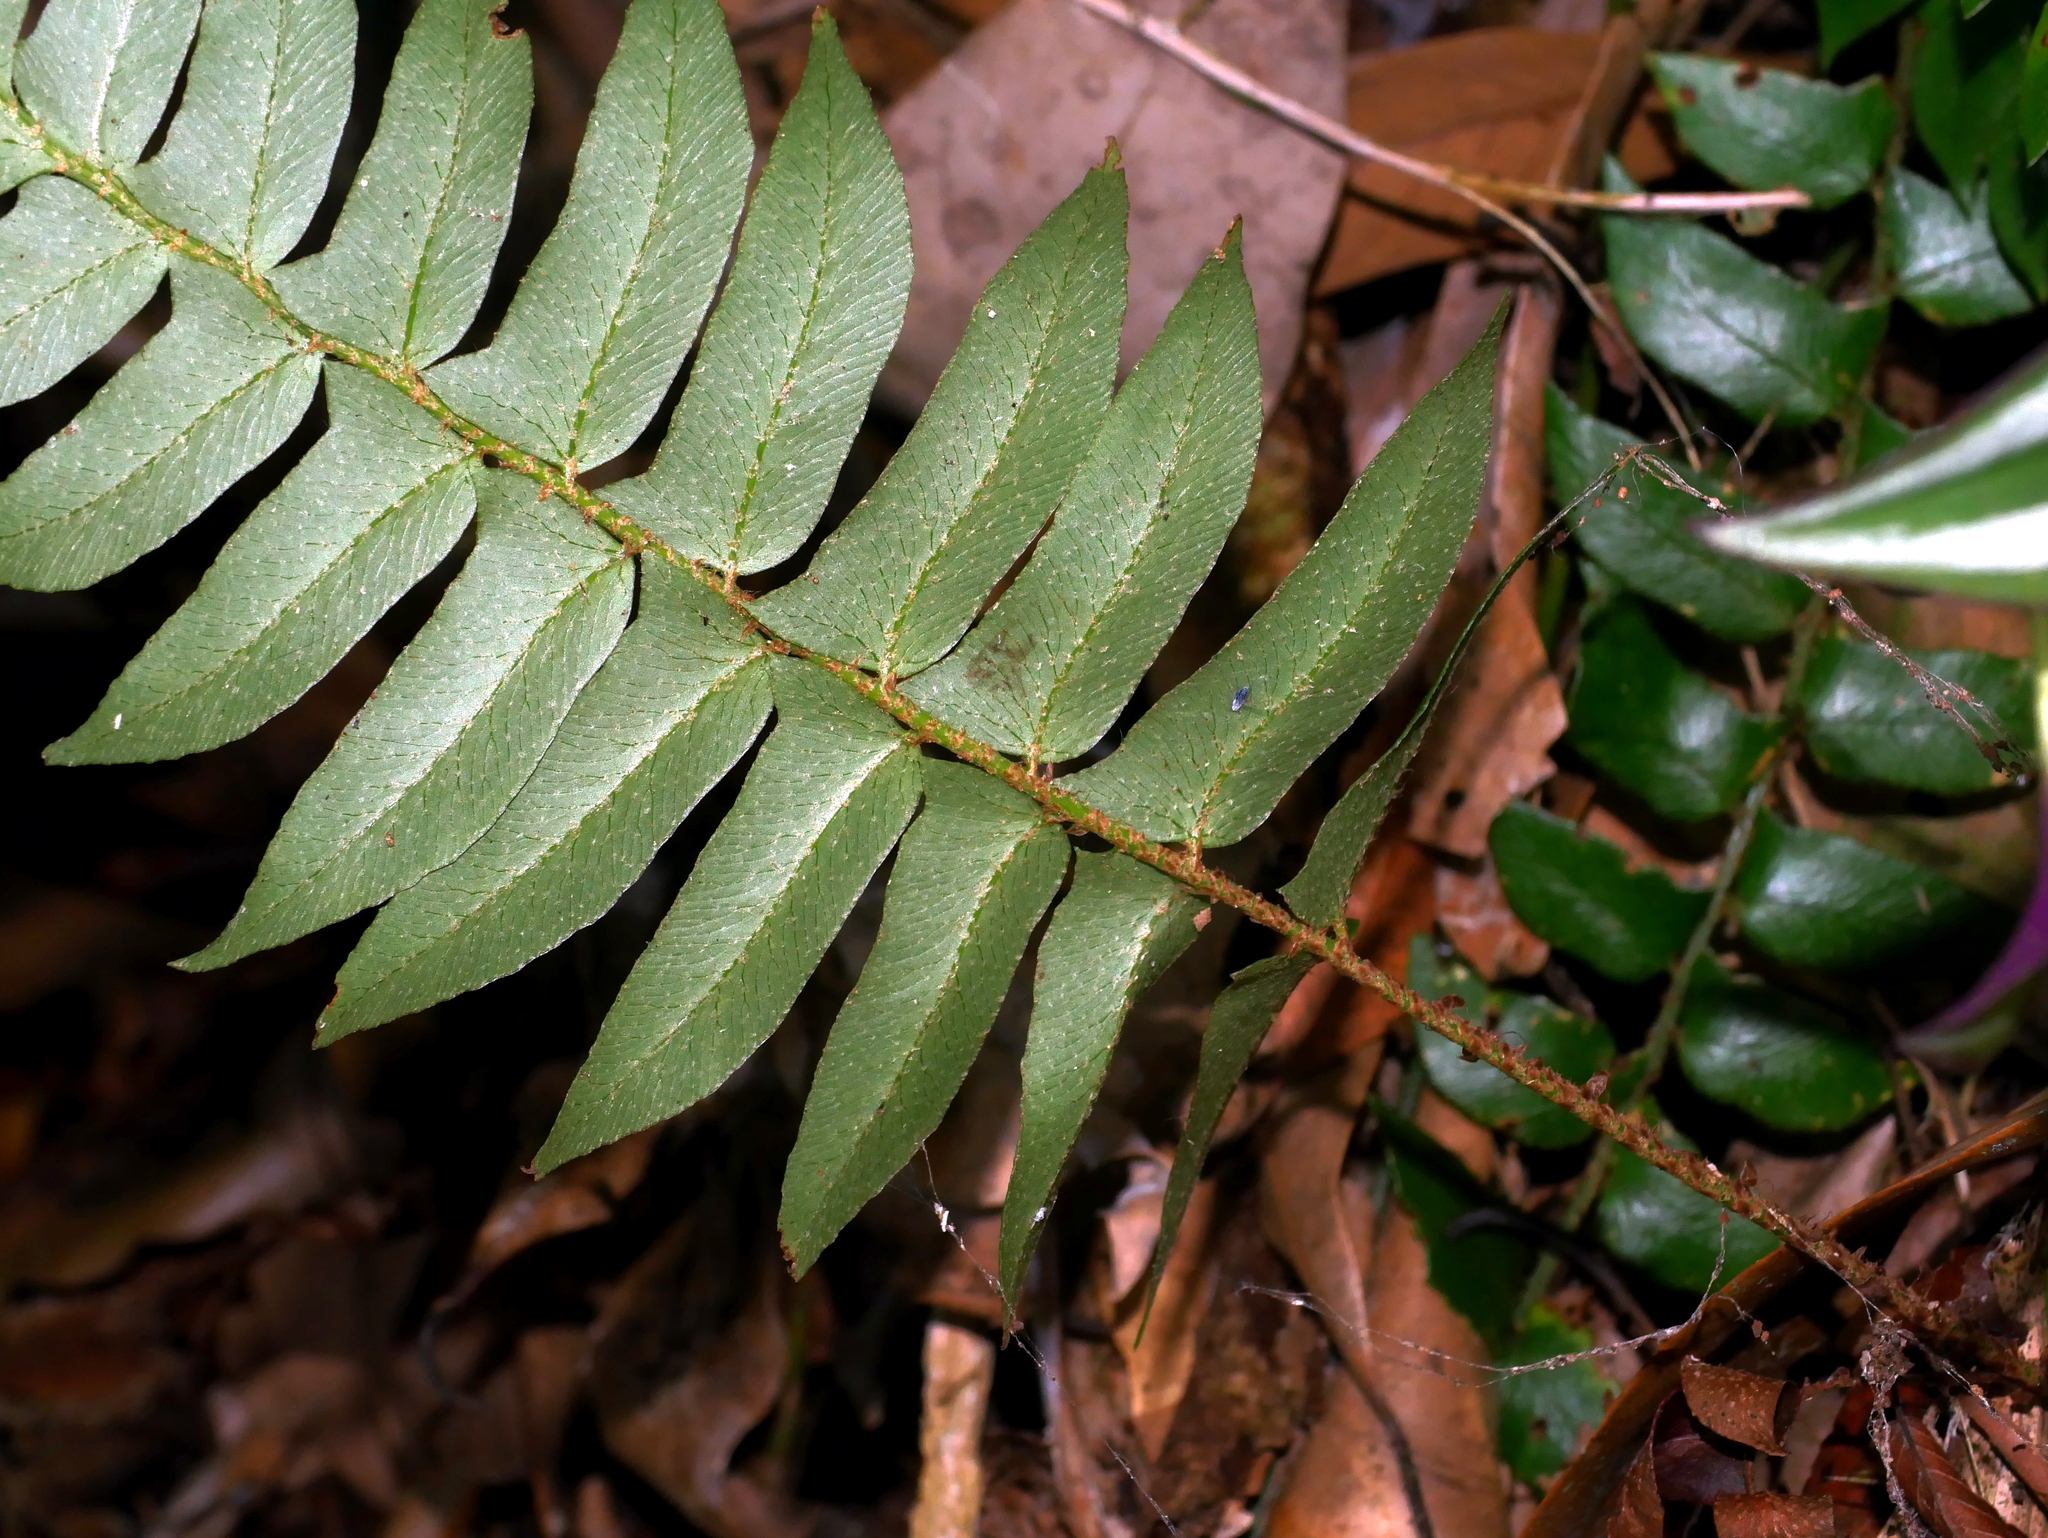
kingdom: Plantae
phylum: Tracheophyta
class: Polypodiopsida
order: Polypodiales
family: Dryopteridaceae
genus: Polystichum
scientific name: Polystichum lepidocaulon
